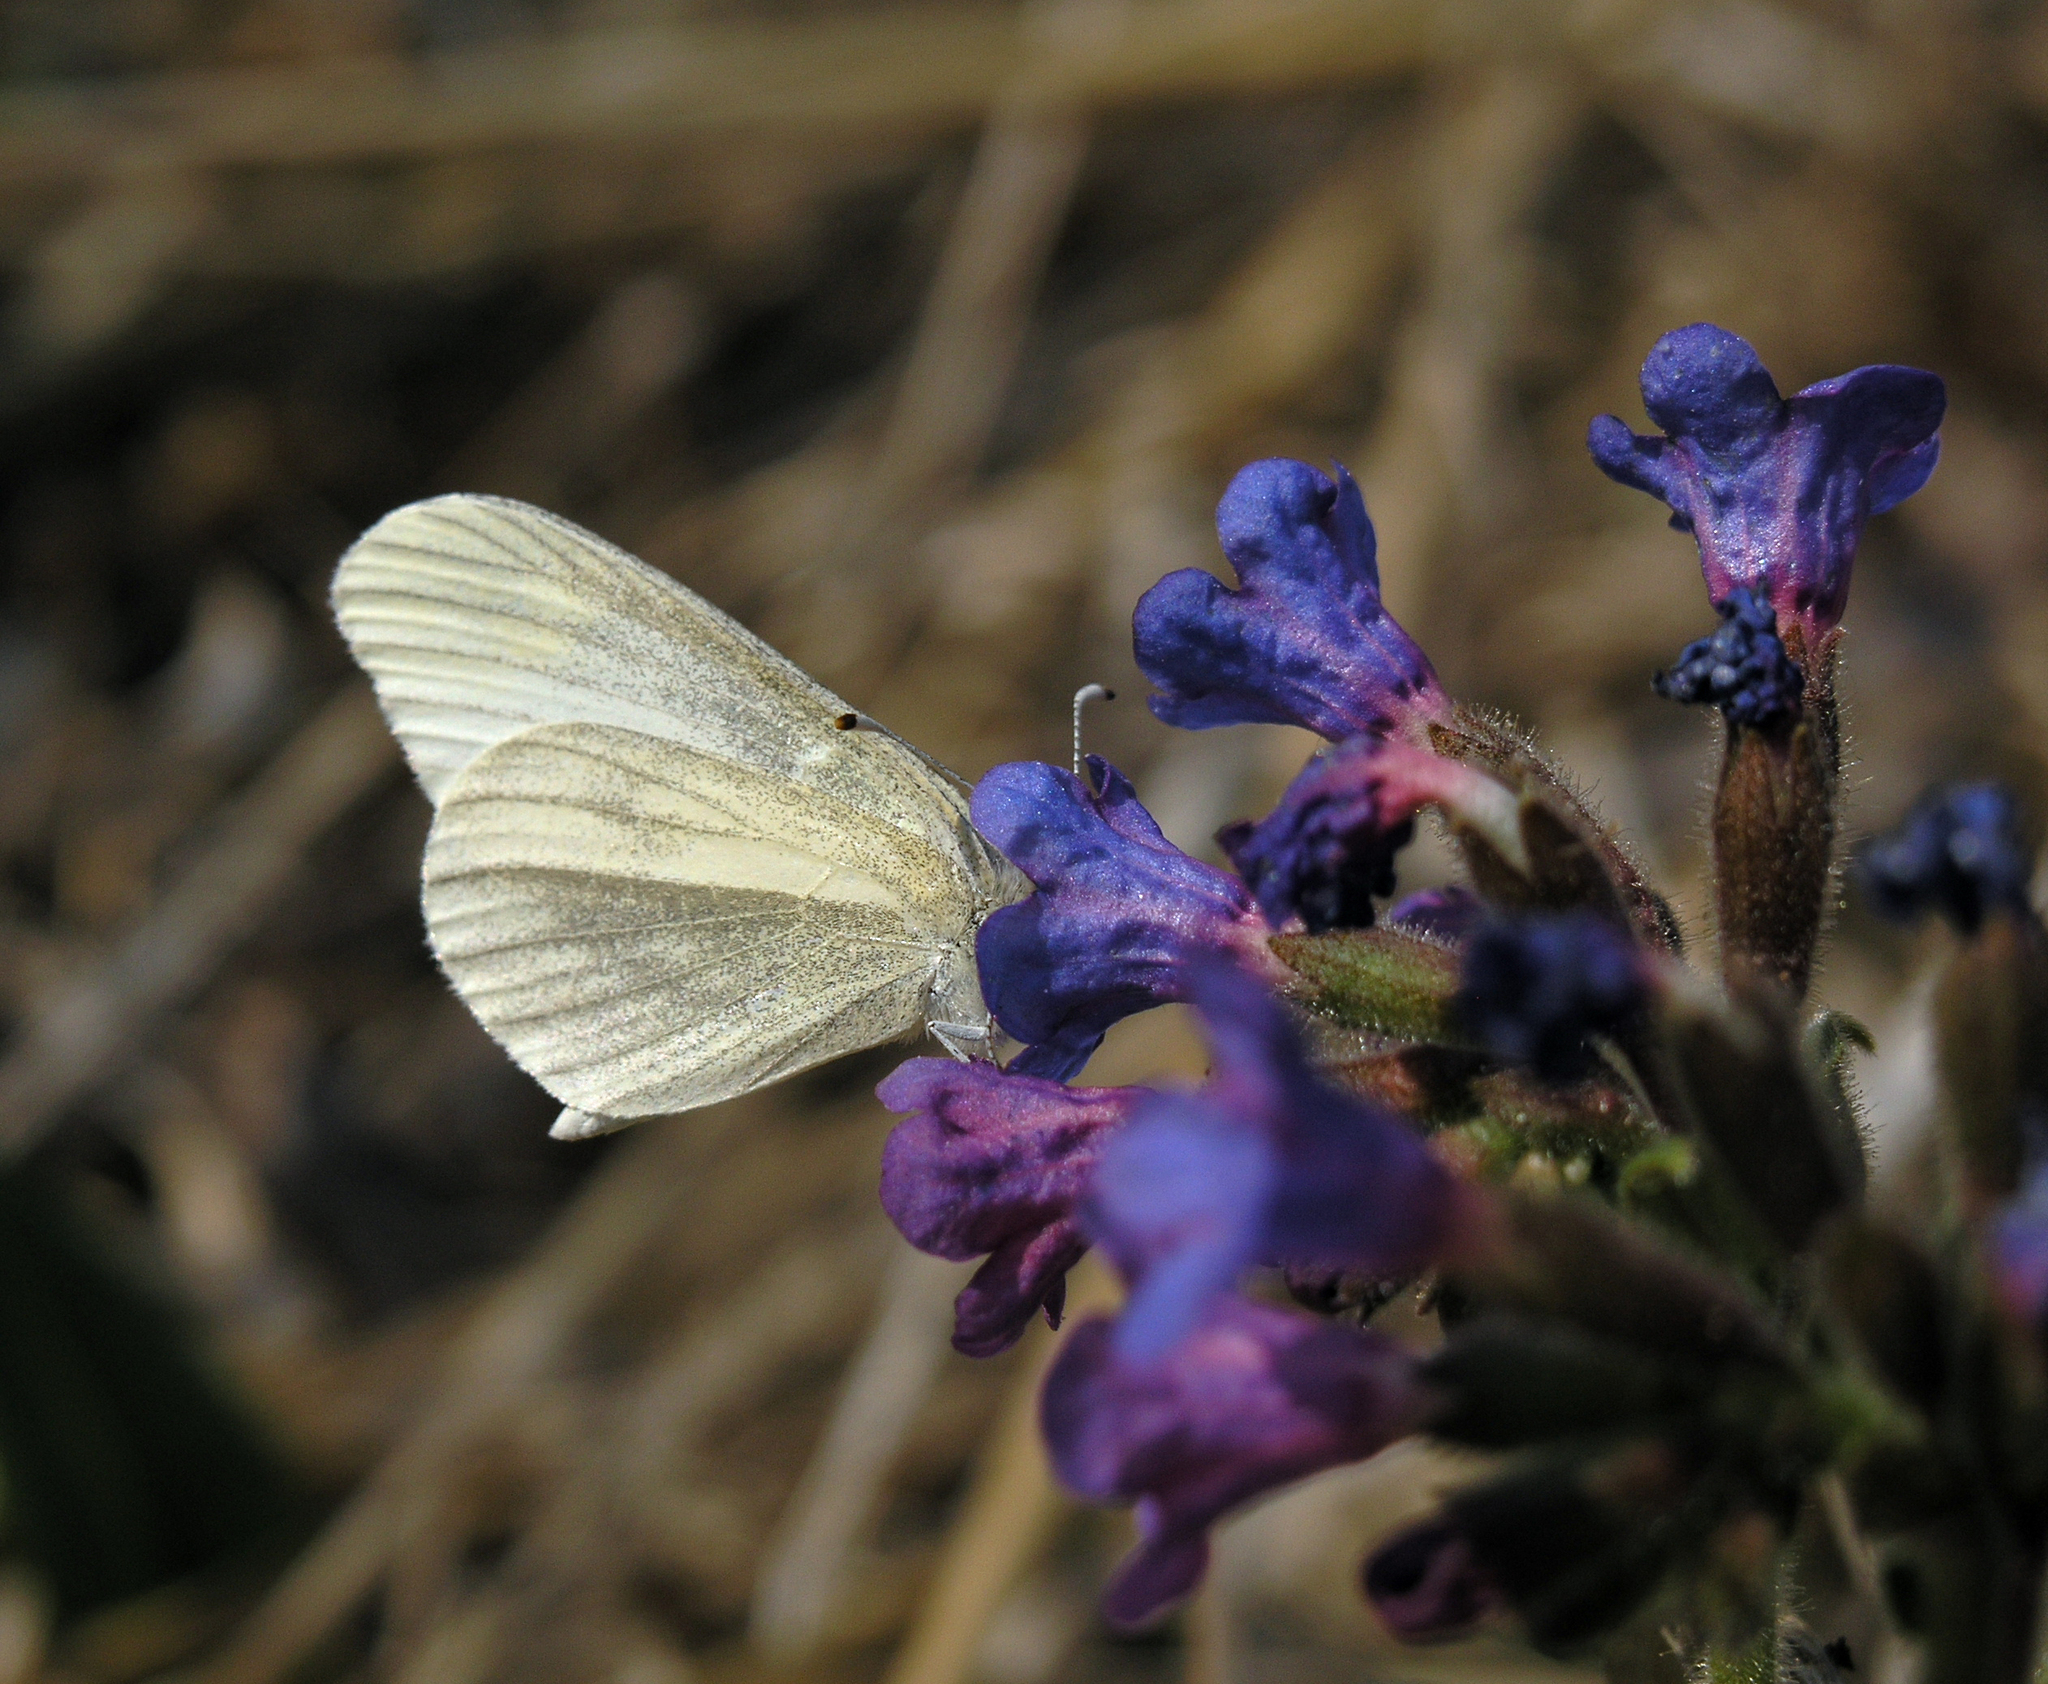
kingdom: Plantae
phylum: Tracheophyta
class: Magnoliopsida
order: Boraginales
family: Boraginaceae
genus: Pulmonaria
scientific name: Pulmonaria mollis
